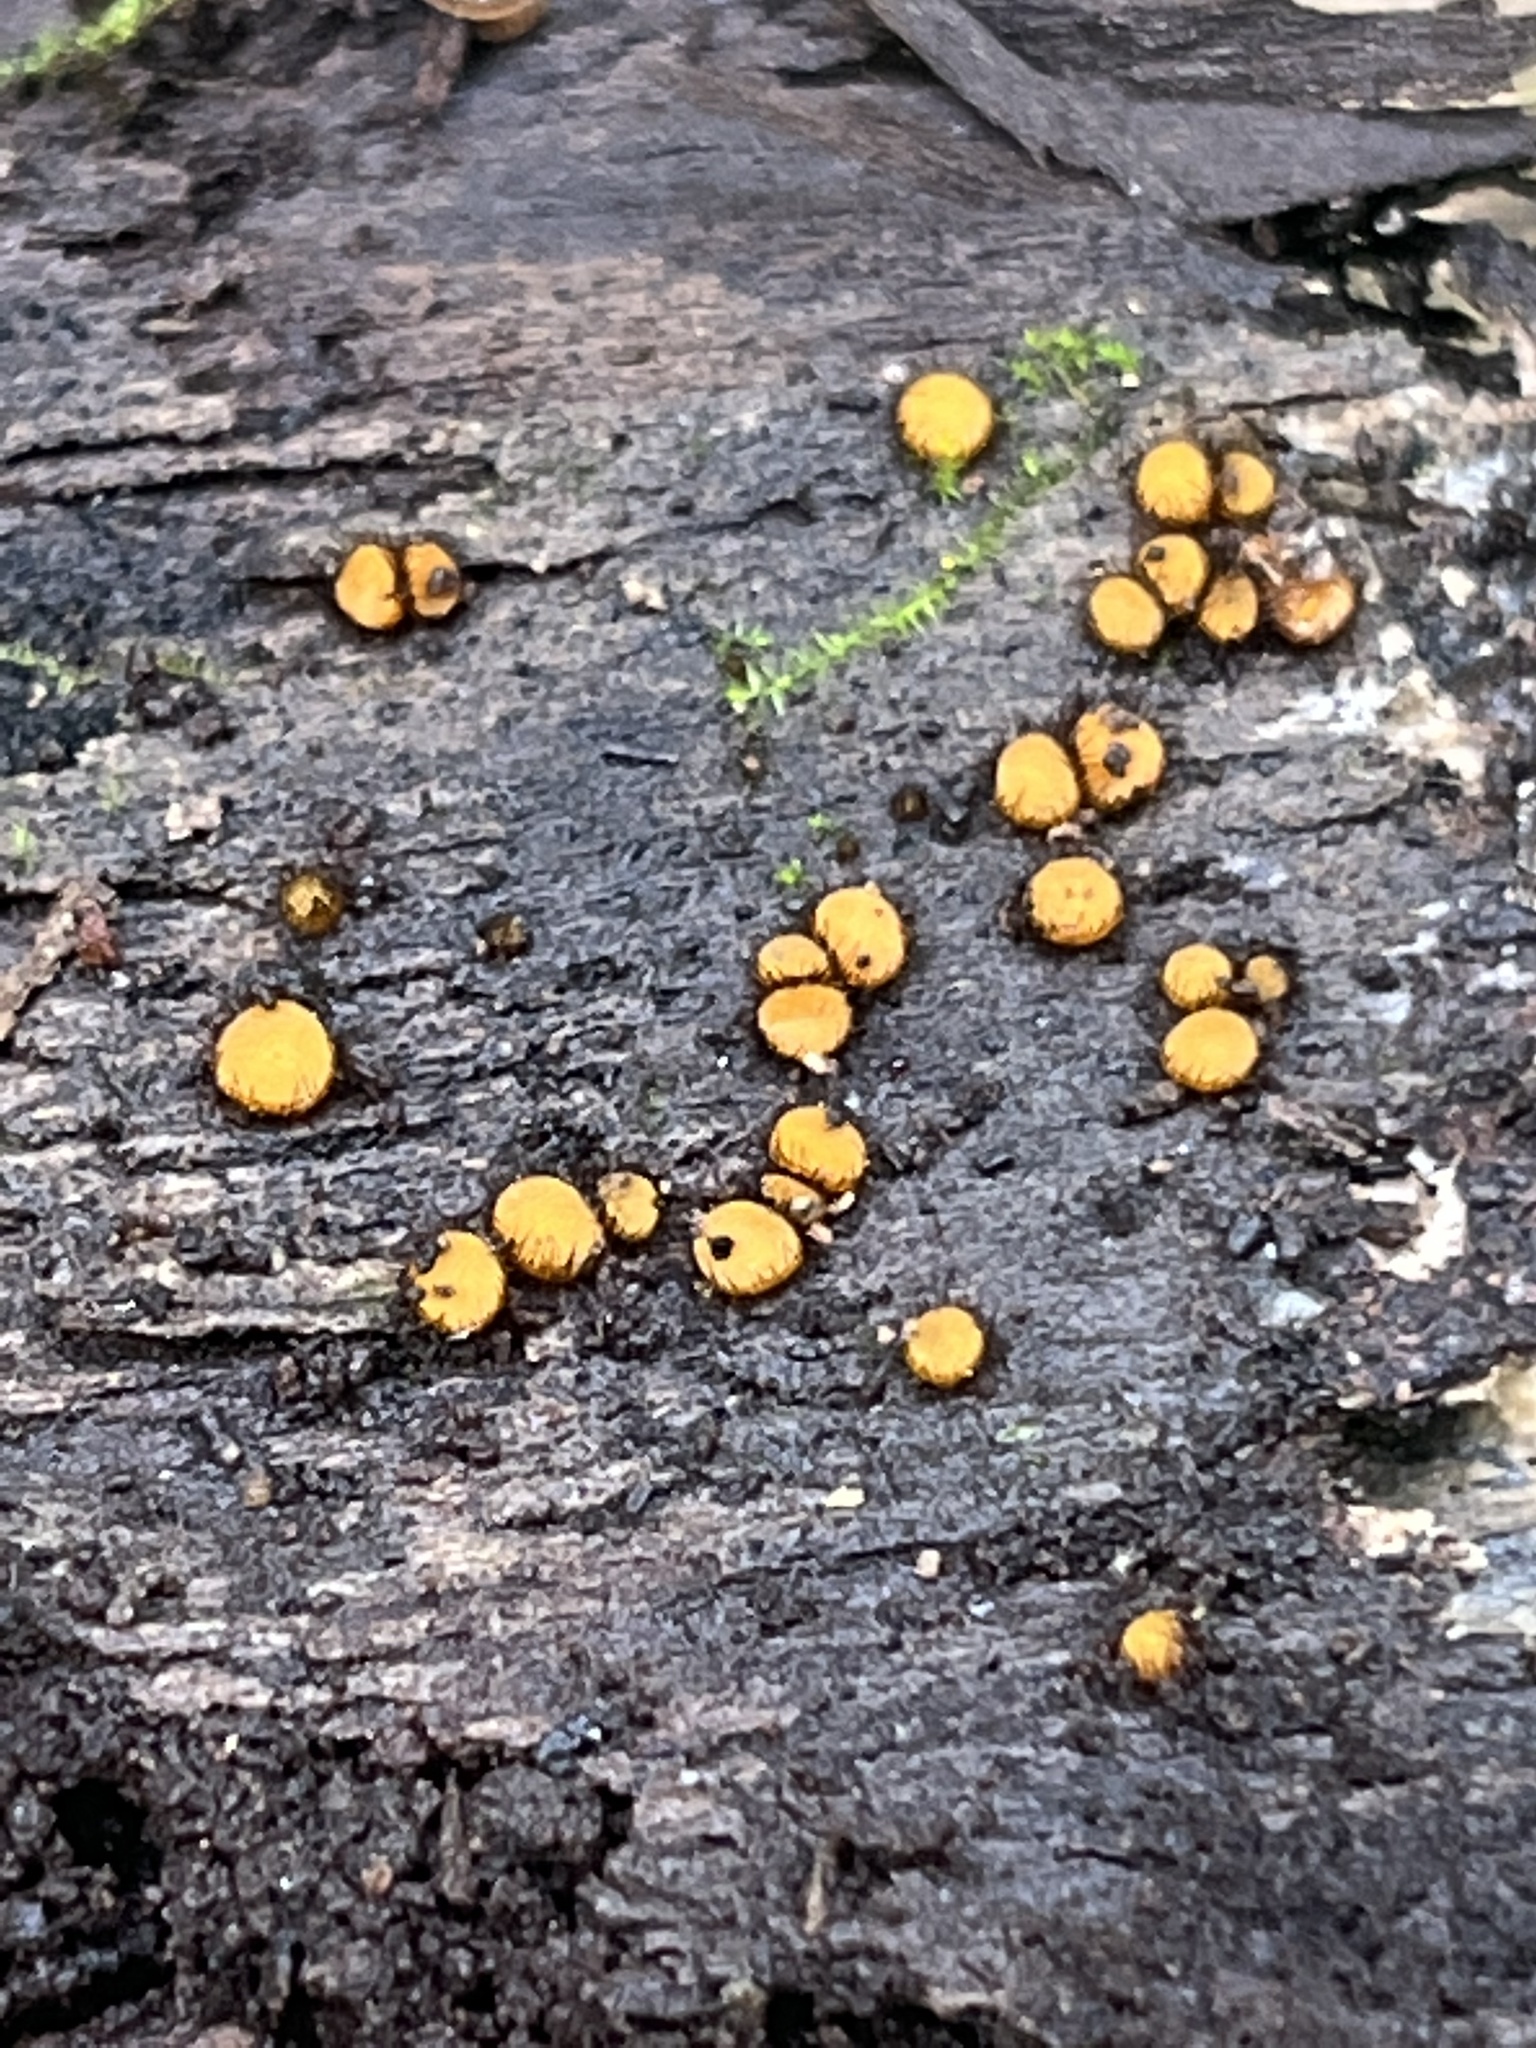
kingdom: Fungi
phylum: Ascomycota
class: Pezizomycetes
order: Pezizales
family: Pyronemataceae
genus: Scutellinia
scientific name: Scutellinia setosa
